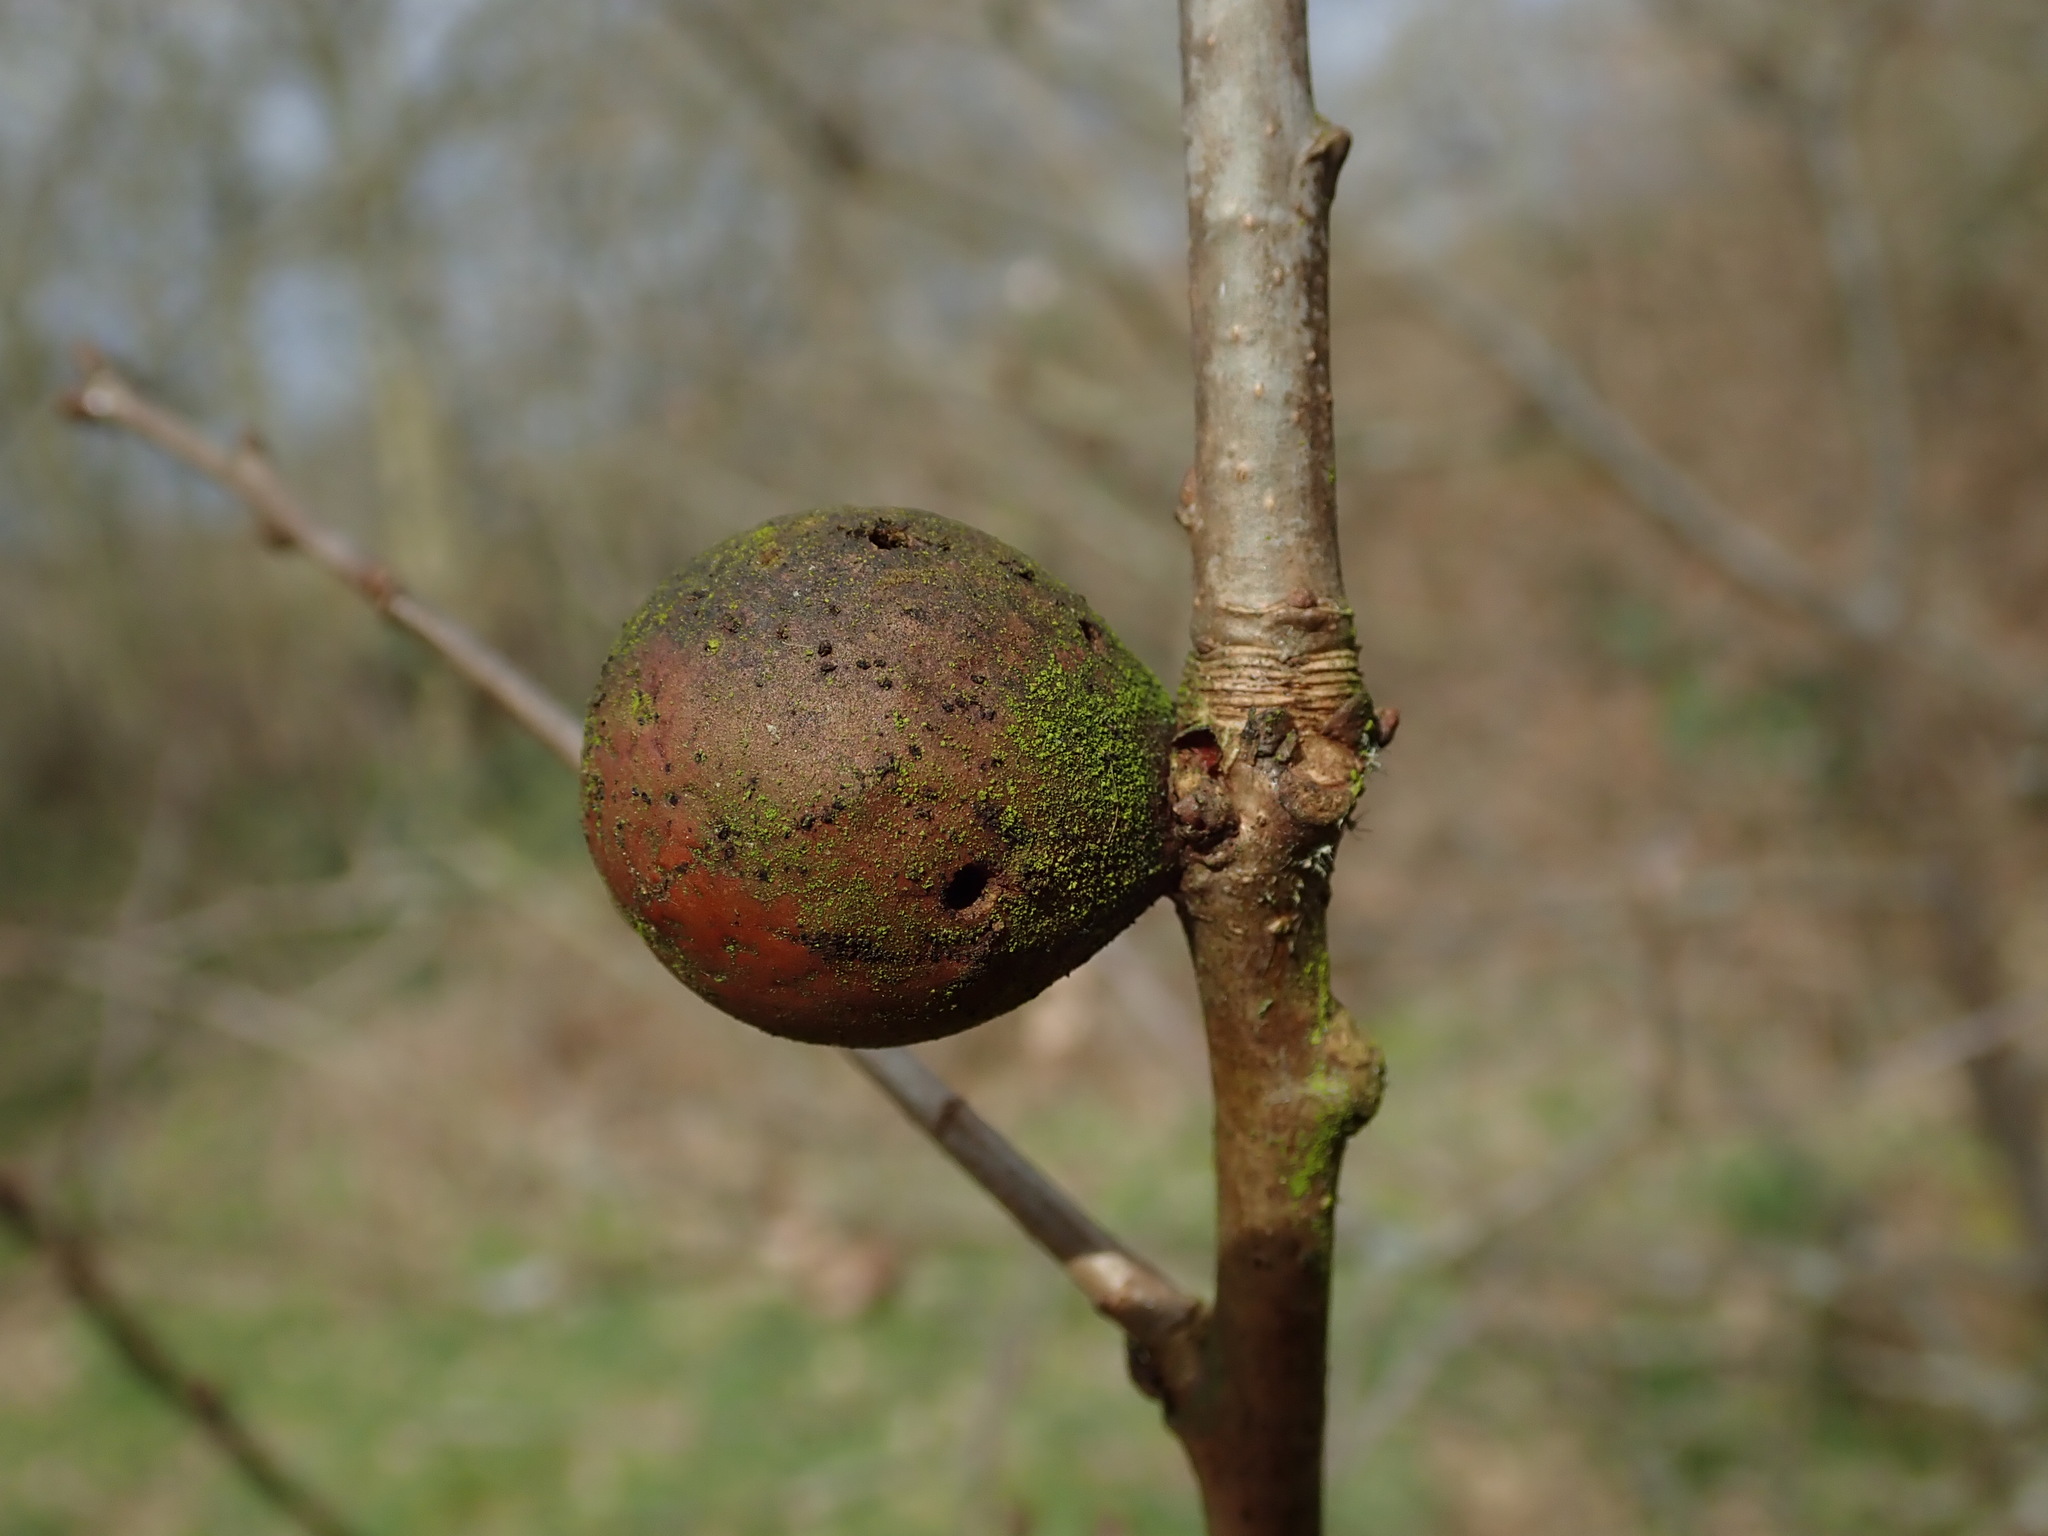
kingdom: Animalia
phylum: Arthropoda
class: Insecta
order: Hymenoptera
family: Cynipidae
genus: Andricus
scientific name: Andricus kollari
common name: Marble gall
